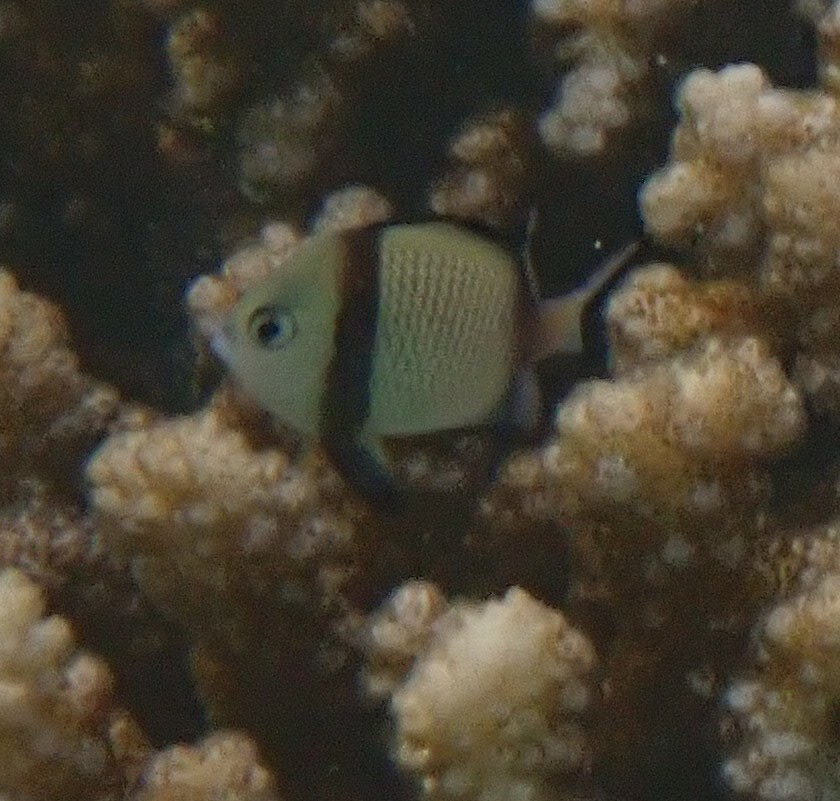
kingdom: Animalia
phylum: Chordata
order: Perciformes
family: Pomacentridae
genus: Dascyllus
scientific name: Dascyllus reticulatus
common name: Reticulated dascyllus
